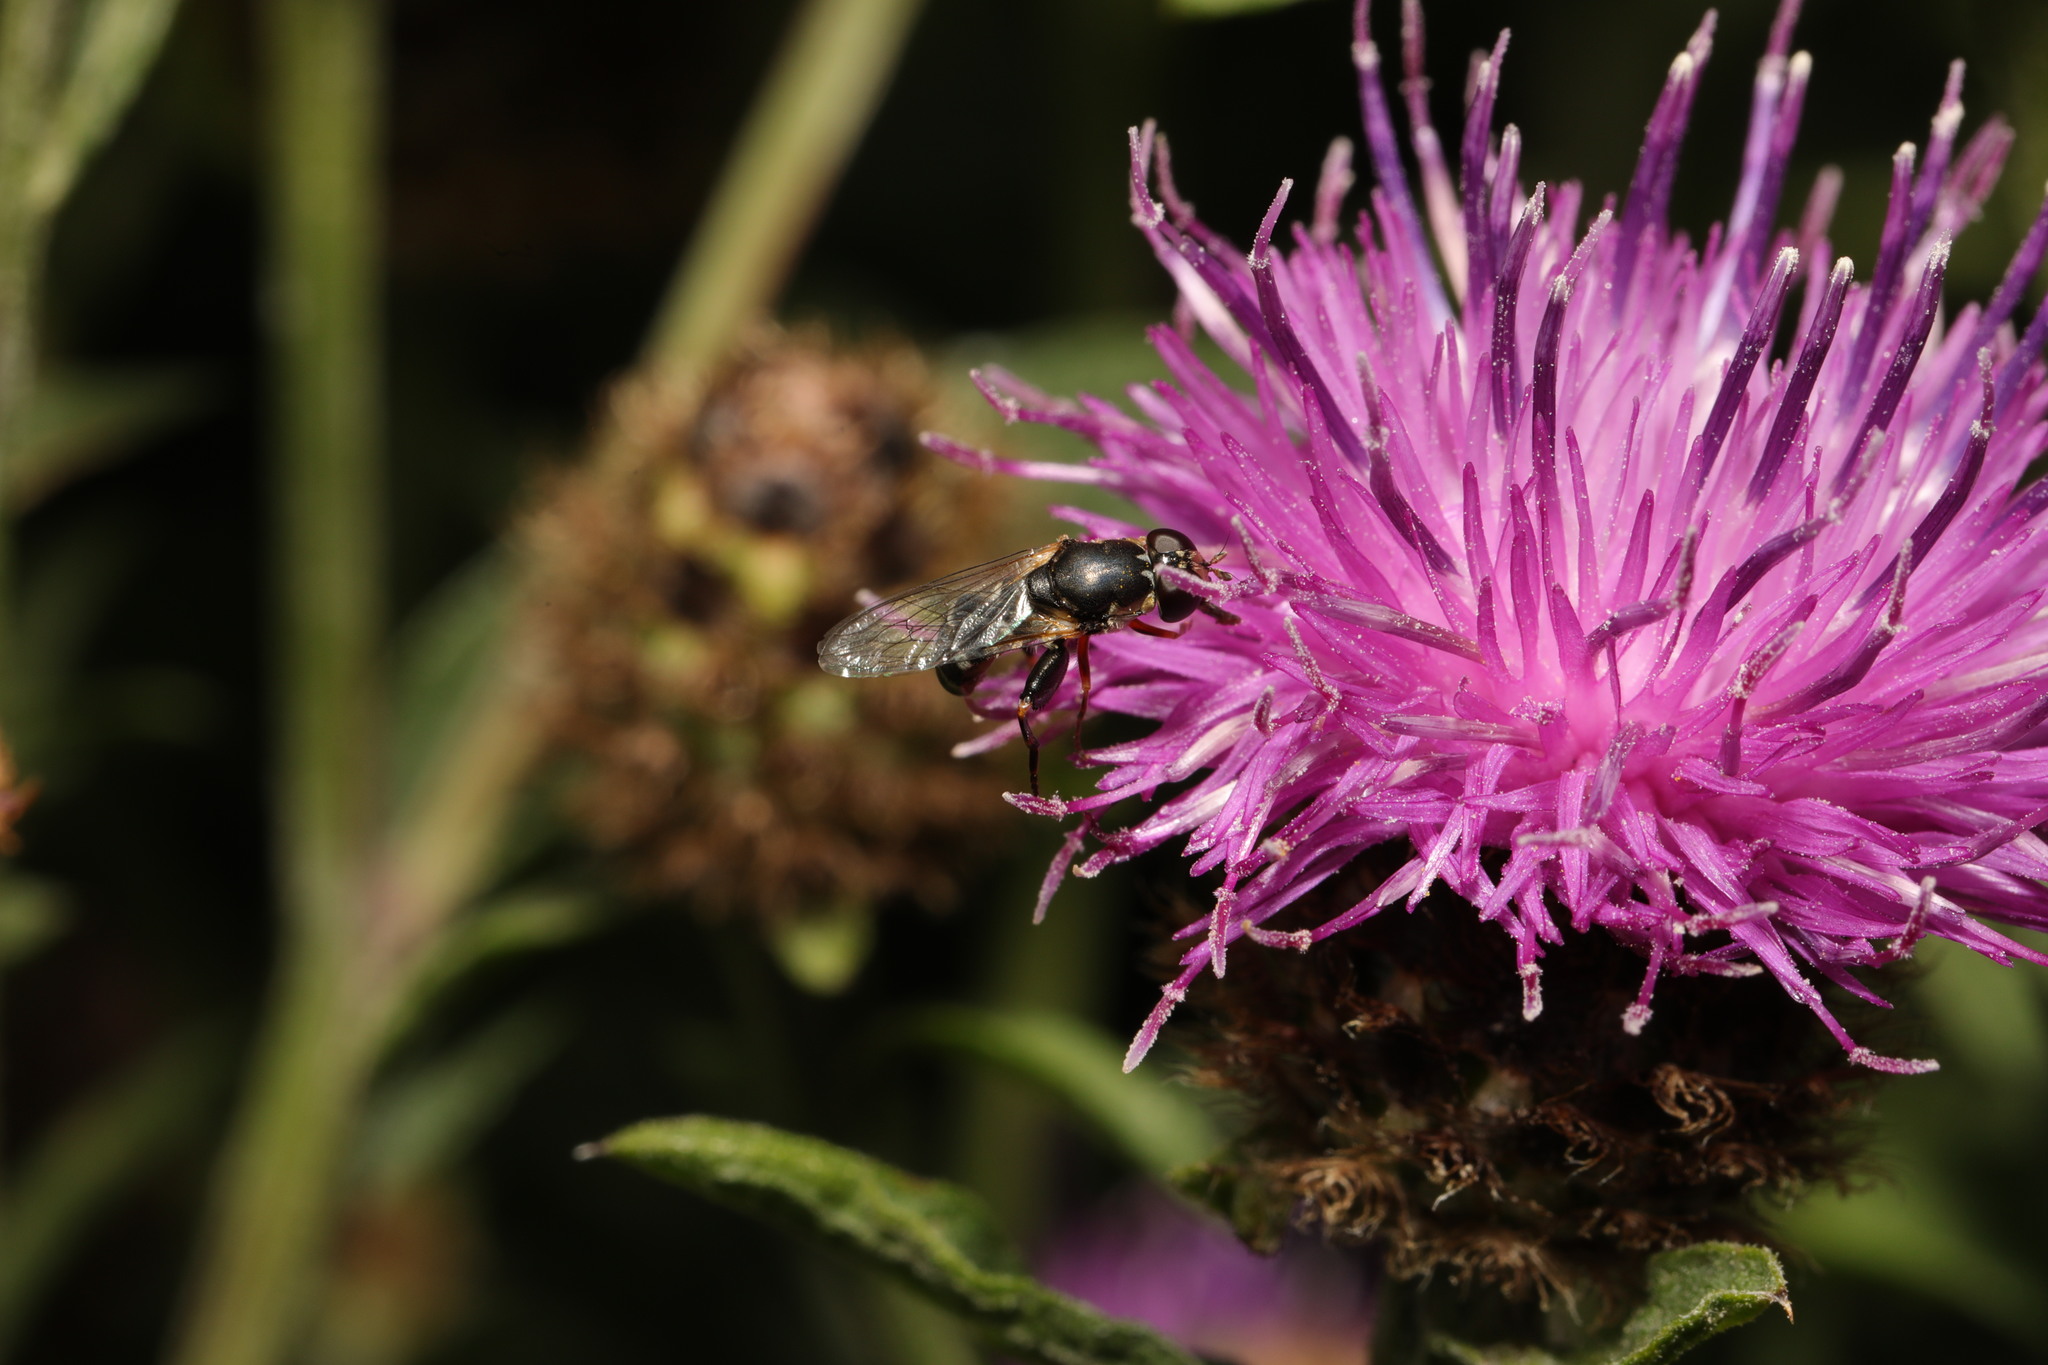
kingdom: Animalia
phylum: Arthropoda
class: Insecta
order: Diptera
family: Syrphidae
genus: Syritta
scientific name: Syritta pipiens
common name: Hover fly
